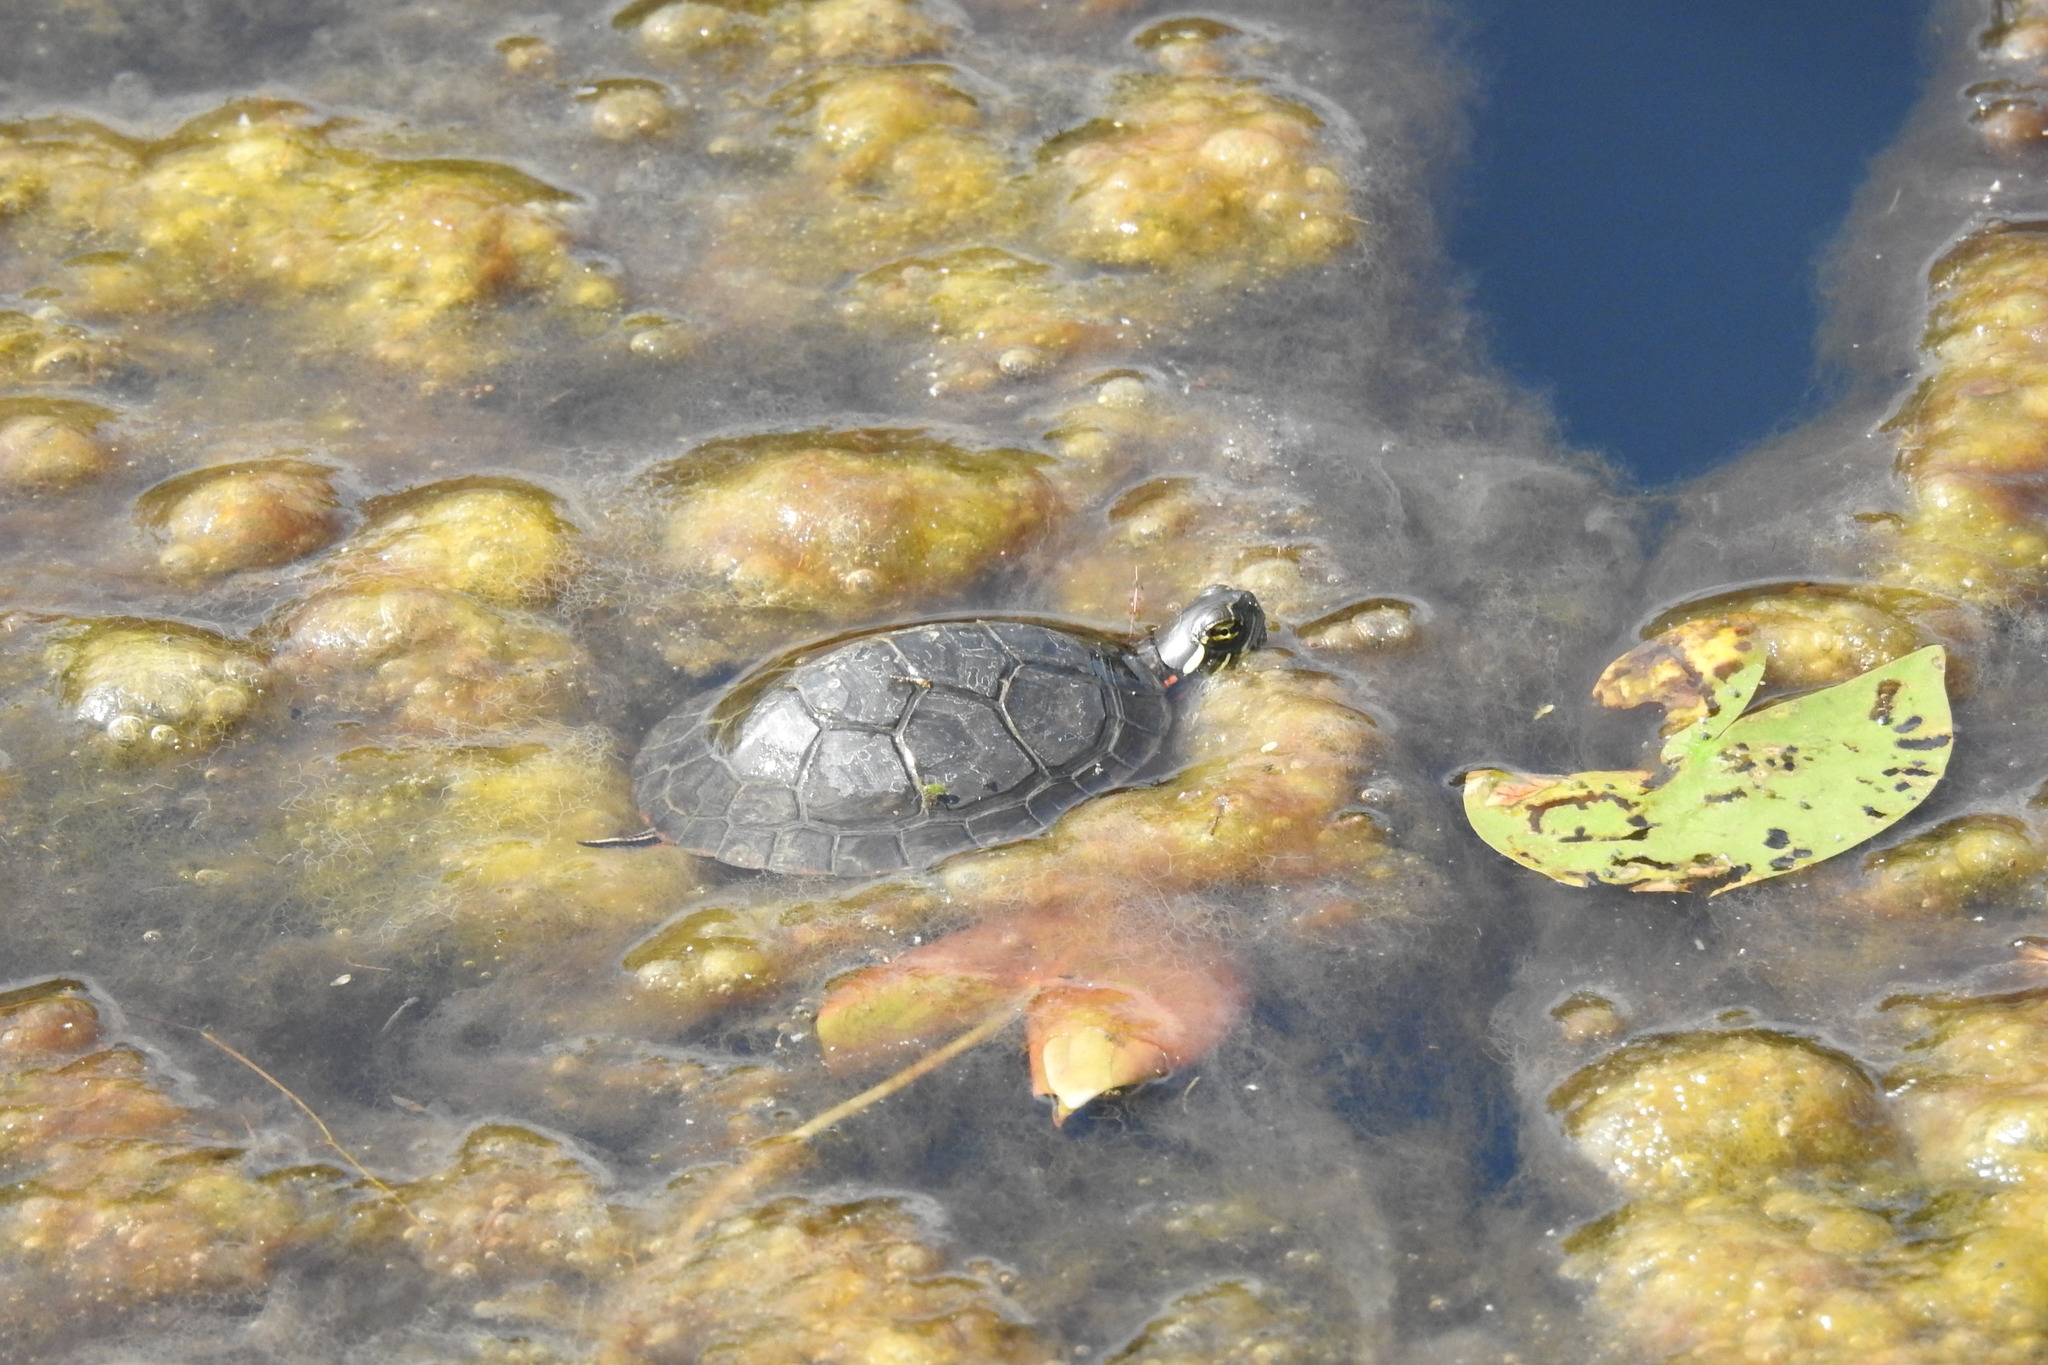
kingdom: Animalia
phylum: Chordata
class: Testudines
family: Emydidae
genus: Chrysemys
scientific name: Chrysemys picta
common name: Painted turtle
